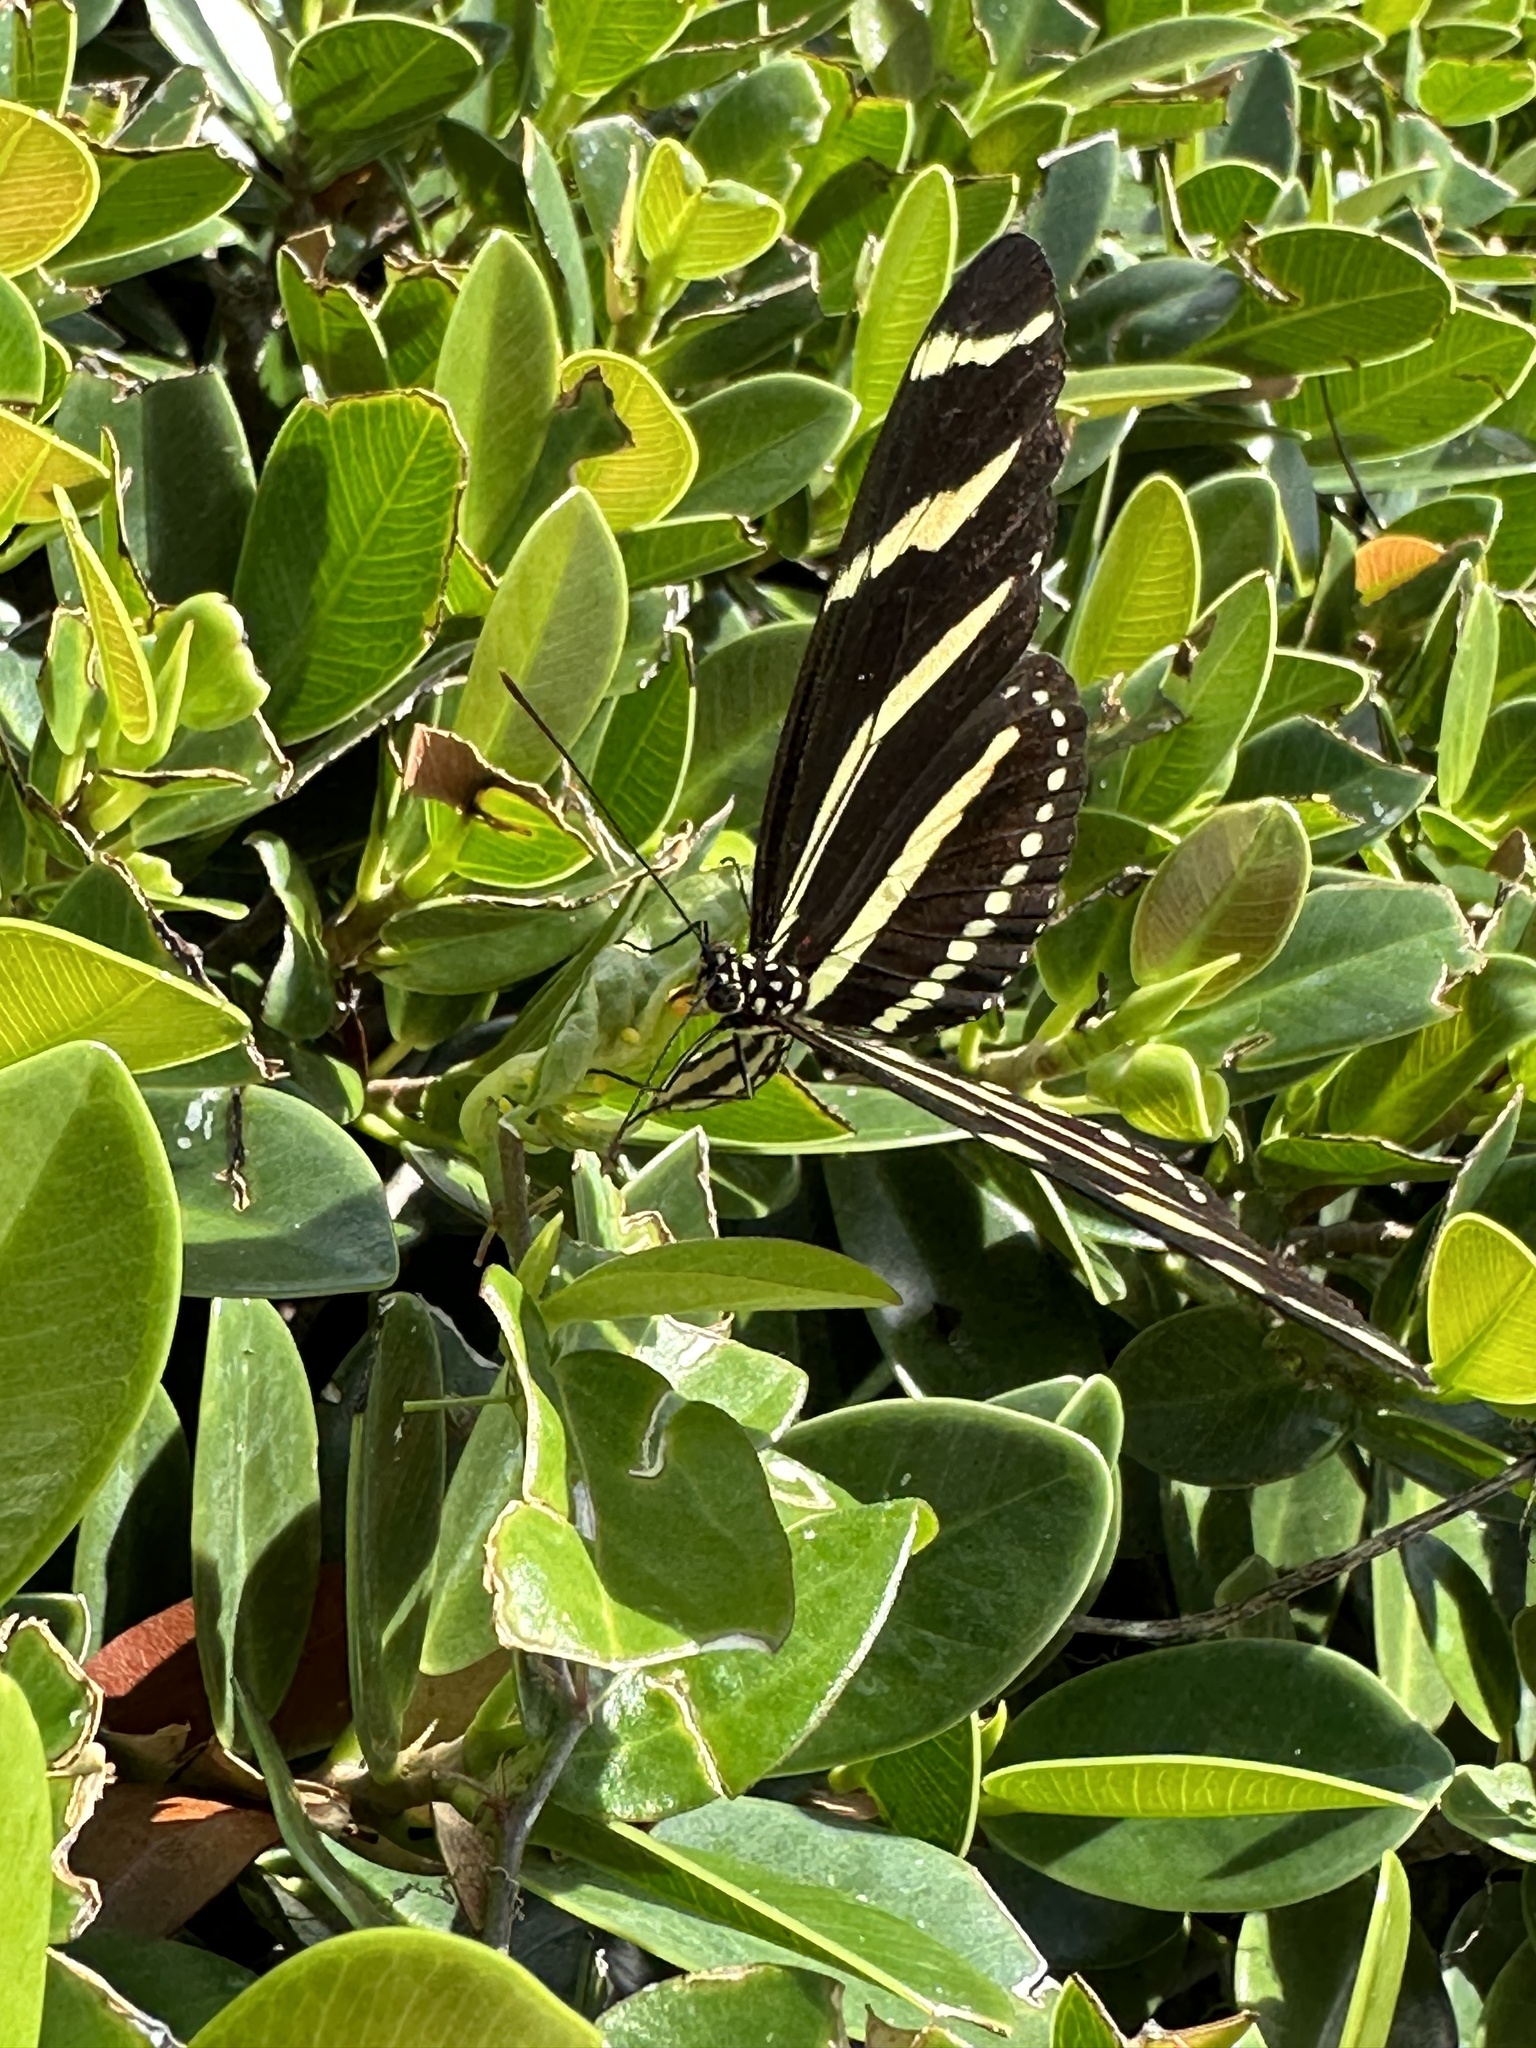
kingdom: Animalia
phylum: Arthropoda
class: Insecta
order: Lepidoptera
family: Nymphalidae
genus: Heliconius
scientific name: Heliconius charithonia
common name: Zebra long wing
